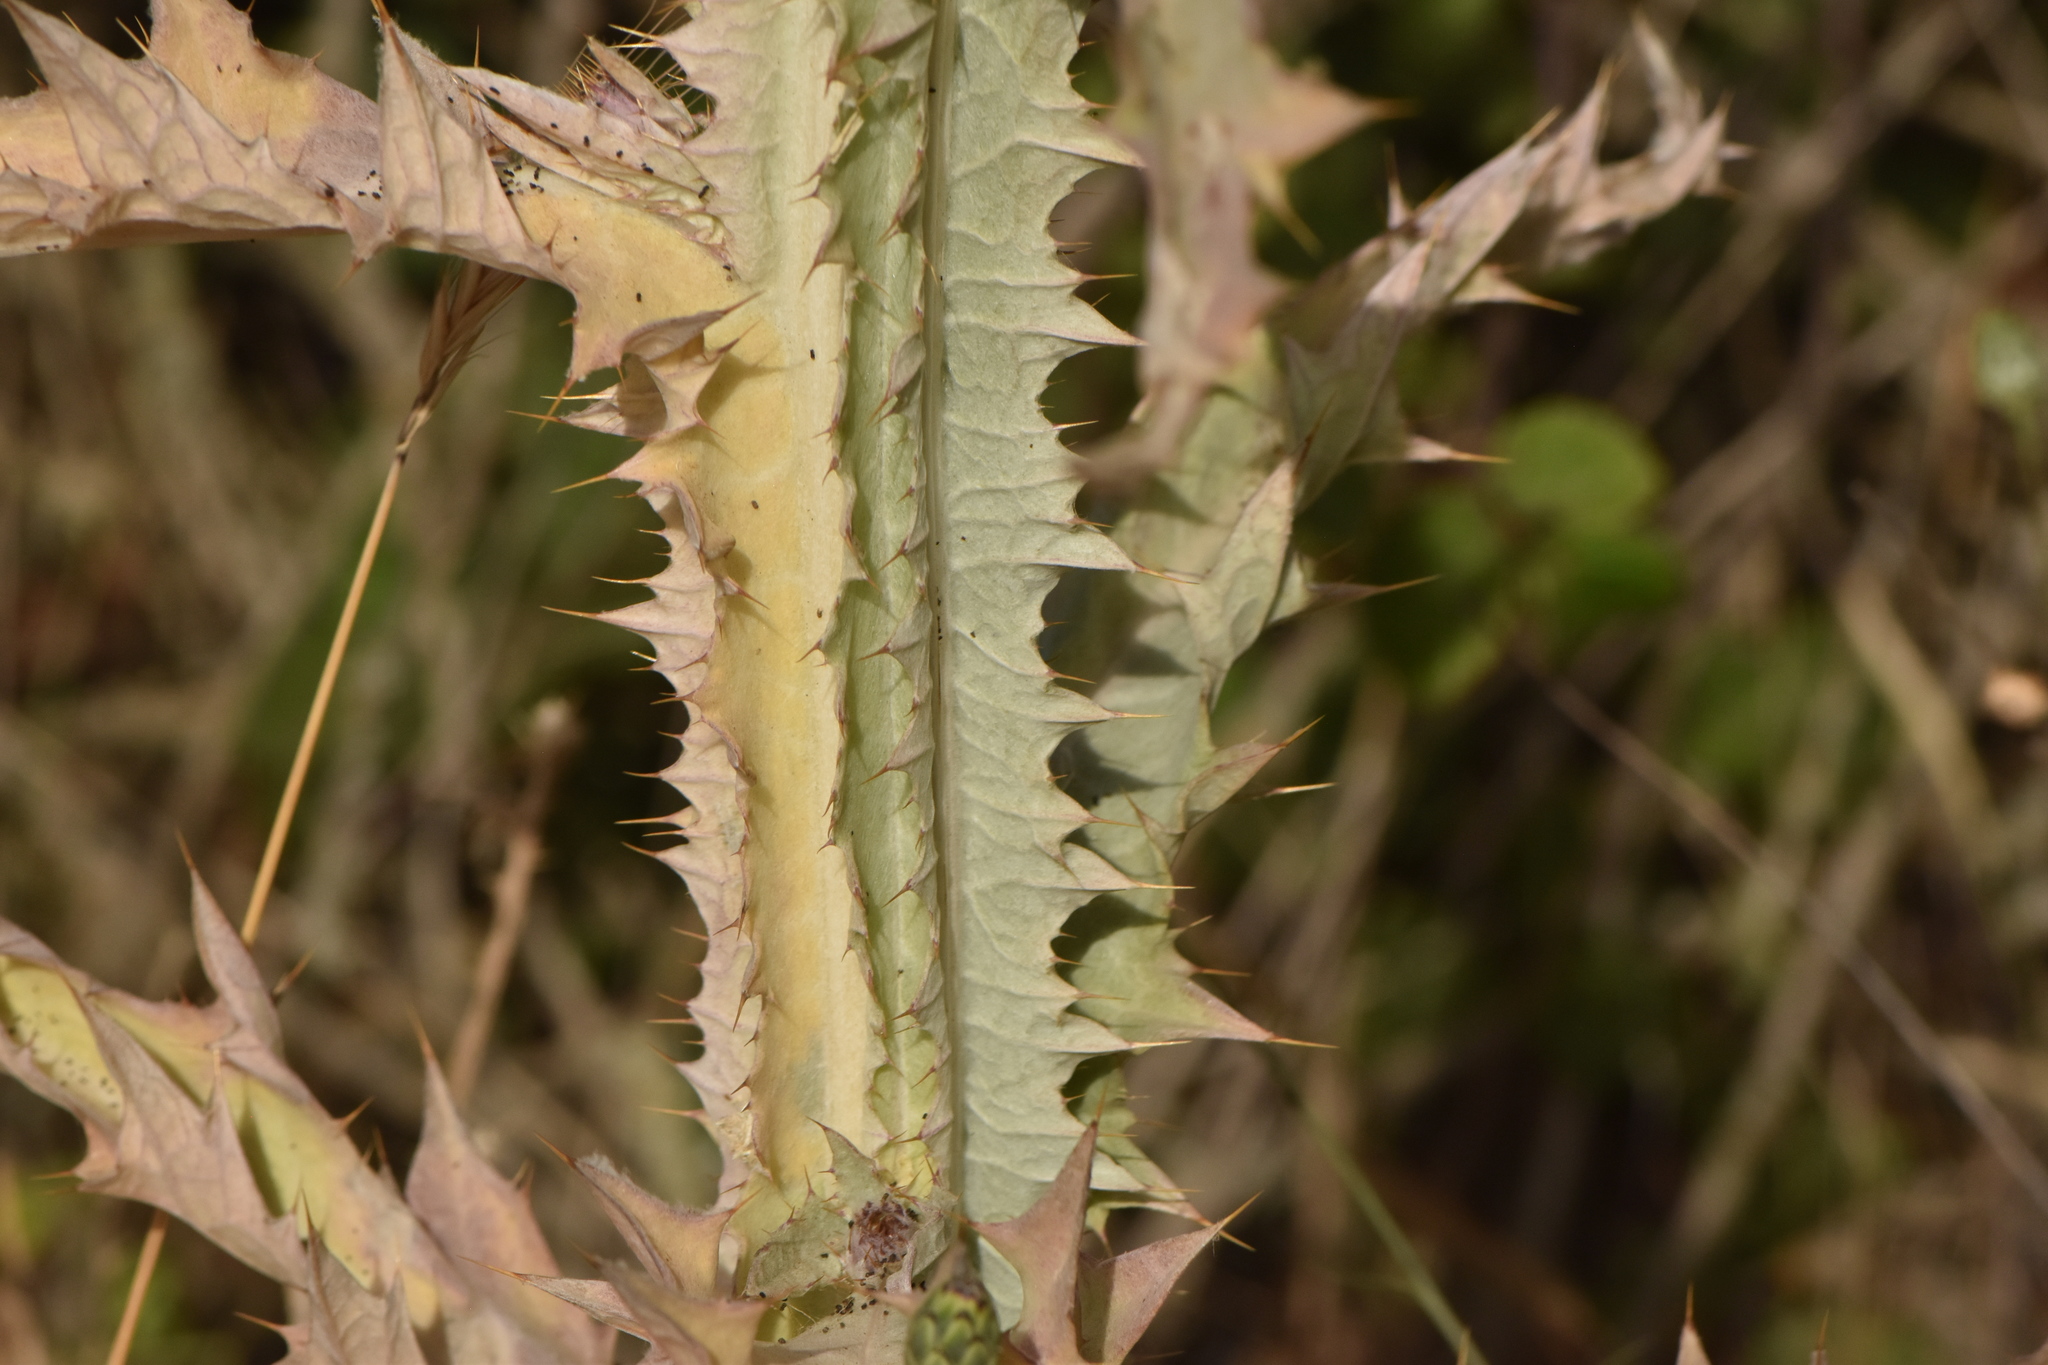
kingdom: Plantae
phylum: Tracheophyta
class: Magnoliopsida
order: Asterales
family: Asteraceae
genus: Onopordum
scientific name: Onopordum illyricum
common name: Illyrian thistle
